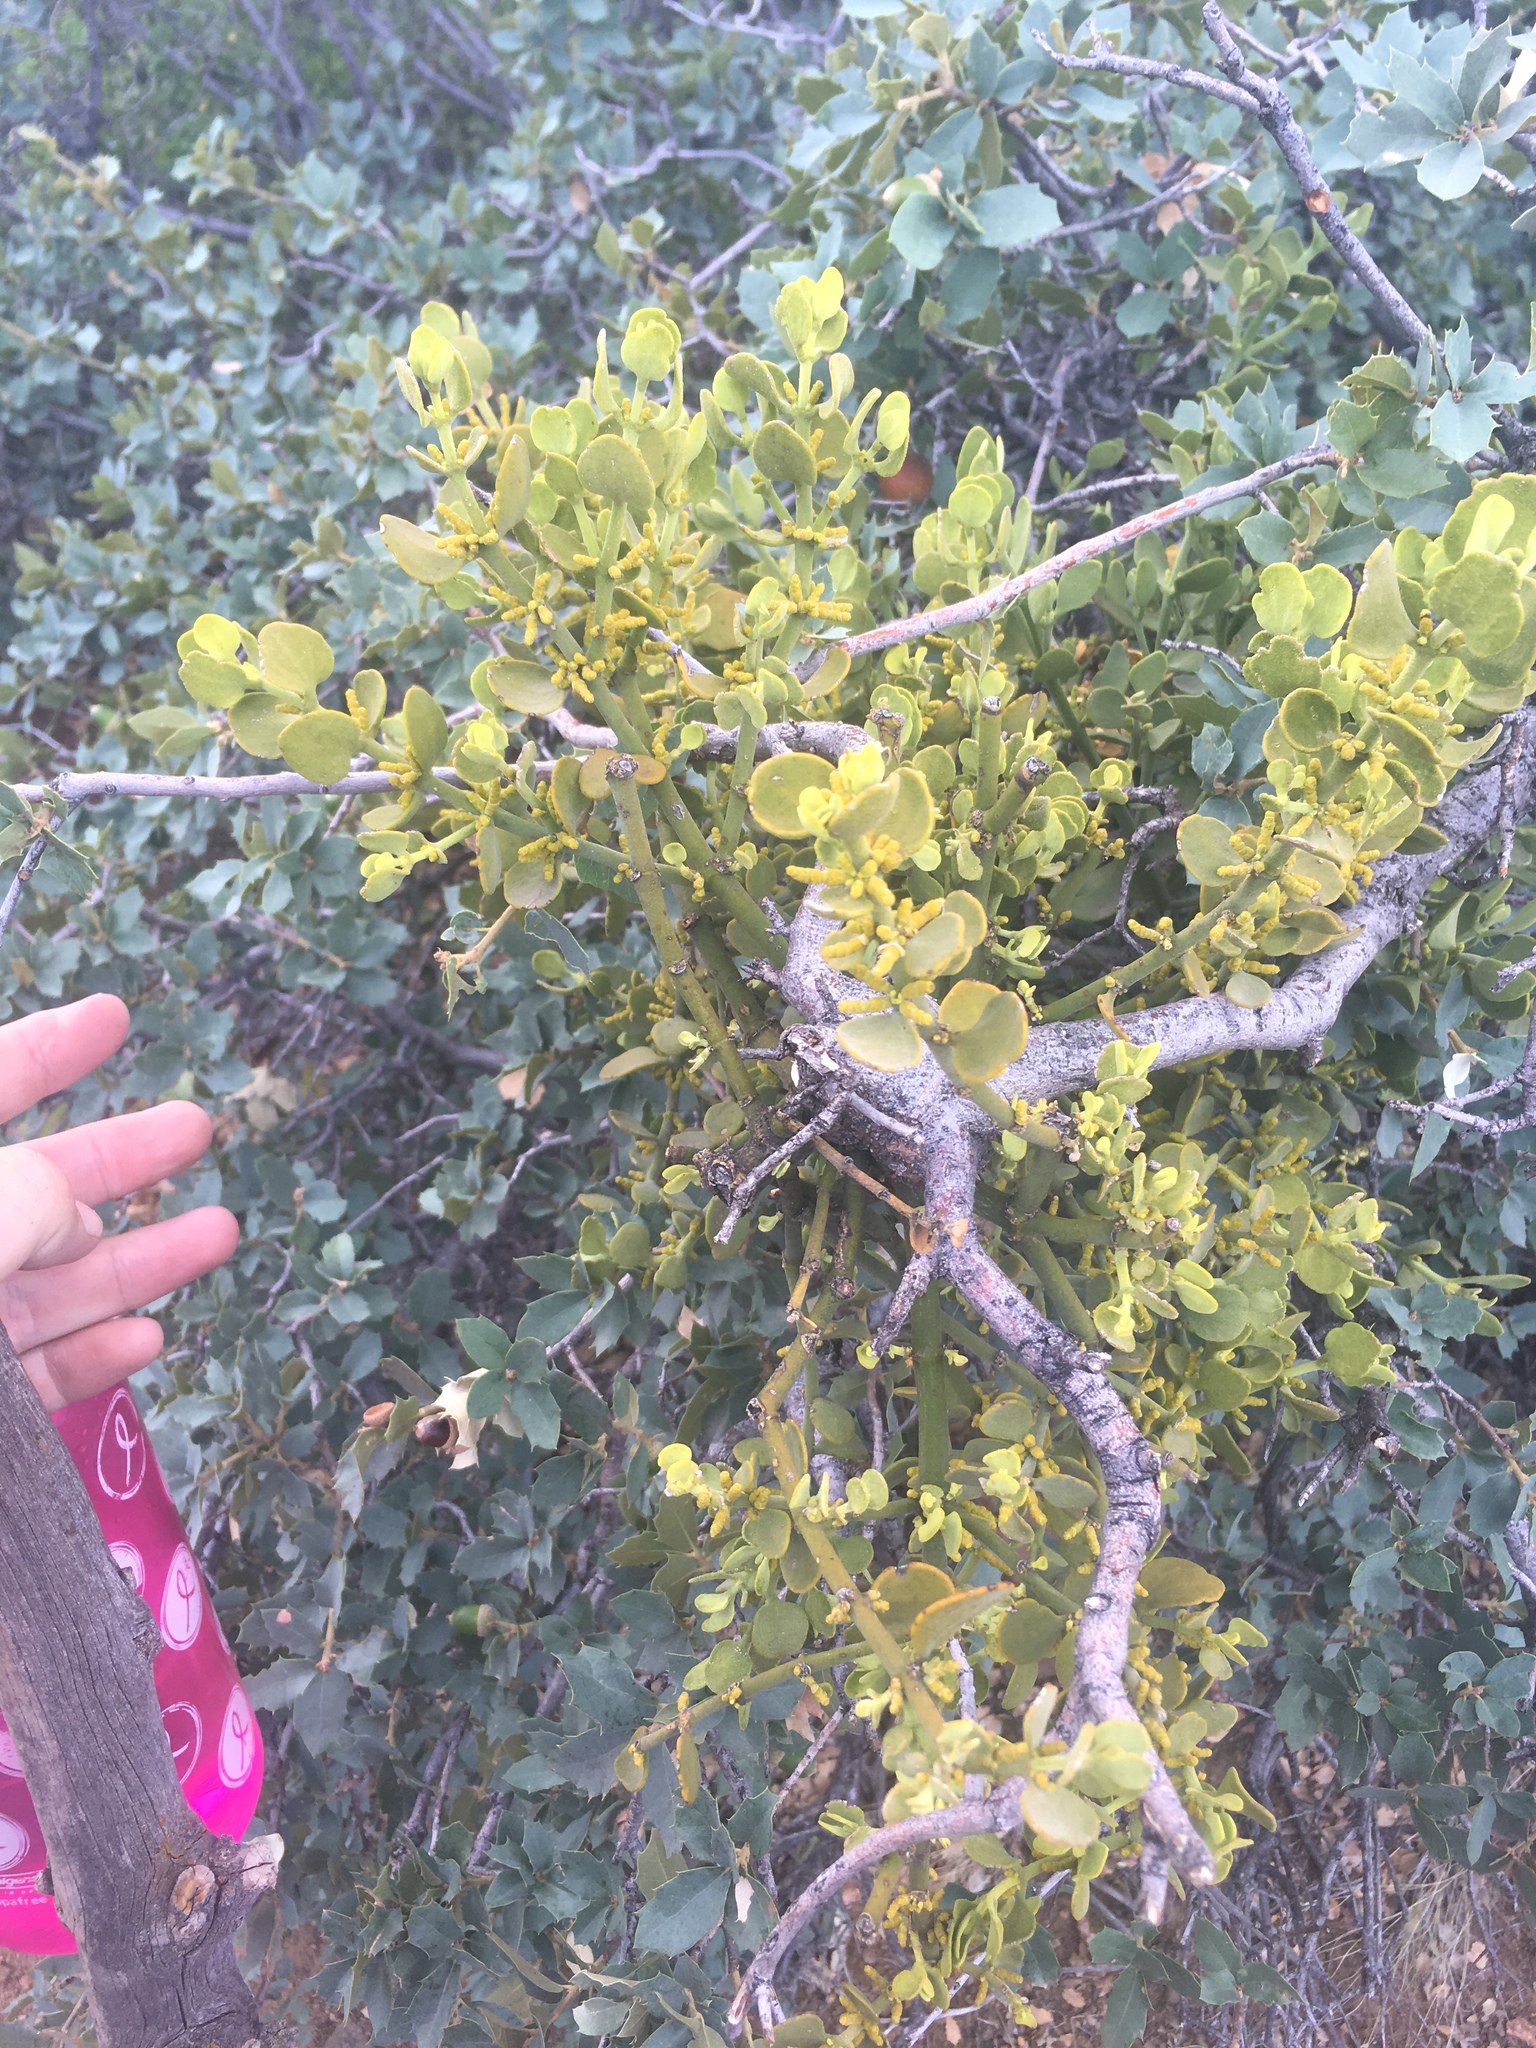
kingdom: Plantae
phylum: Tracheophyta
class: Magnoliopsida
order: Santalales
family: Viscaceae
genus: Phoradendron
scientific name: Phoradendron coryae
